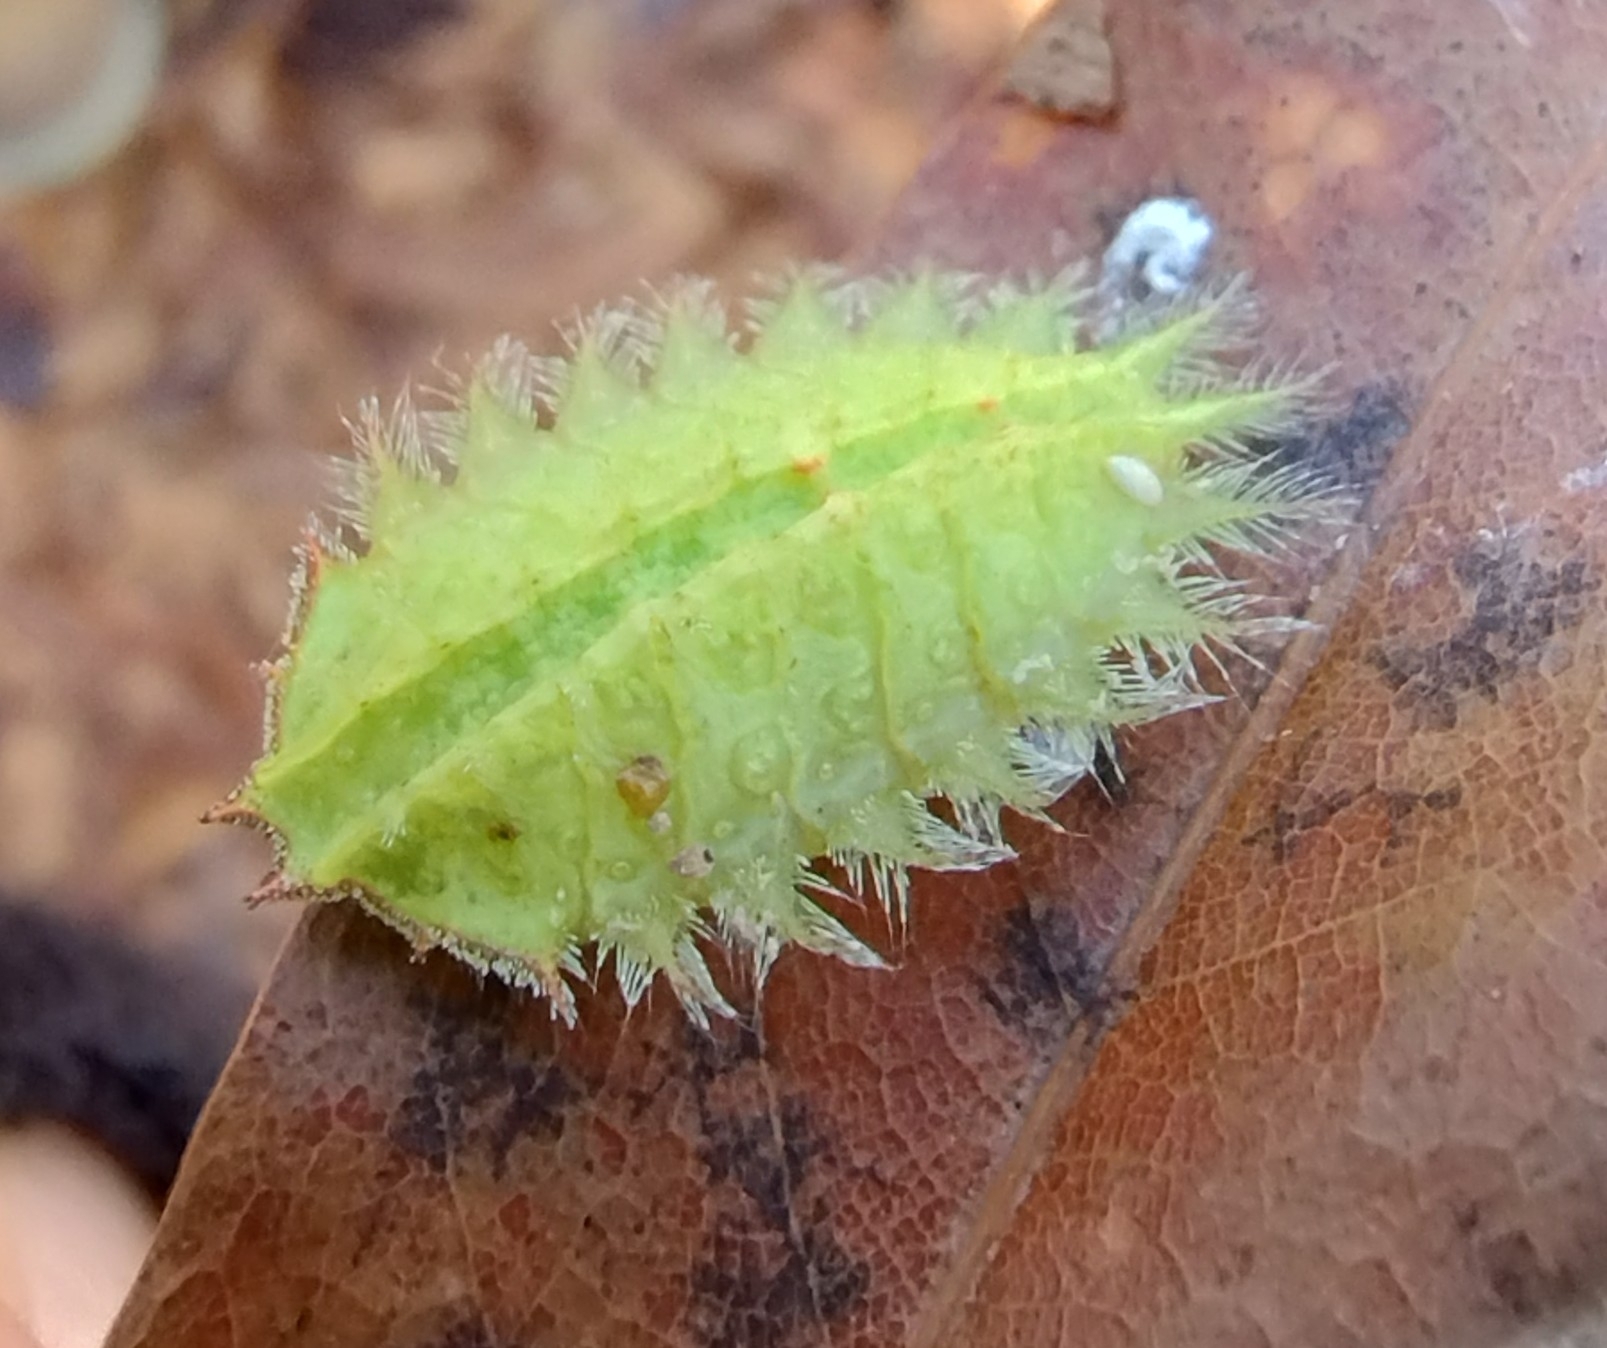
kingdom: Animalia
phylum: Arthropoda
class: Insecta
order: Lepidoptera
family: Limacodidae
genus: Isa
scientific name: Isa textula
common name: Crowned slug moth
